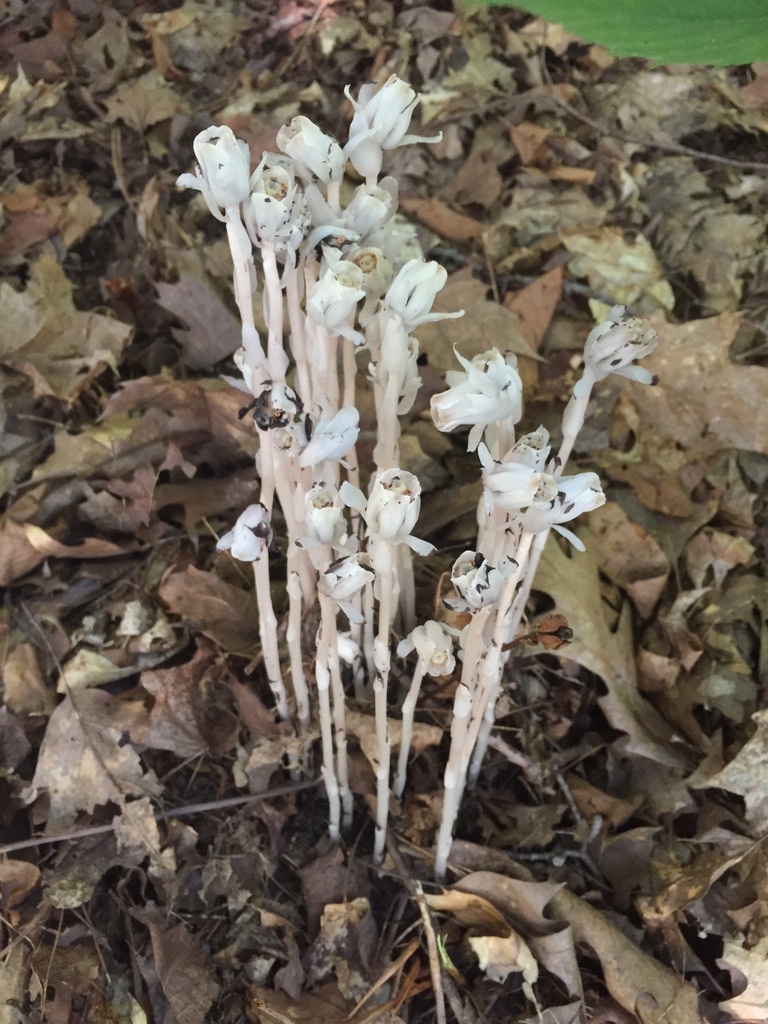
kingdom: Plantae
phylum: Tracheophyta
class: Magnoliopsida
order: Ericales
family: Ericaceae
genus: Monotropa
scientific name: Monotropa uniflora
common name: Convulsion root
